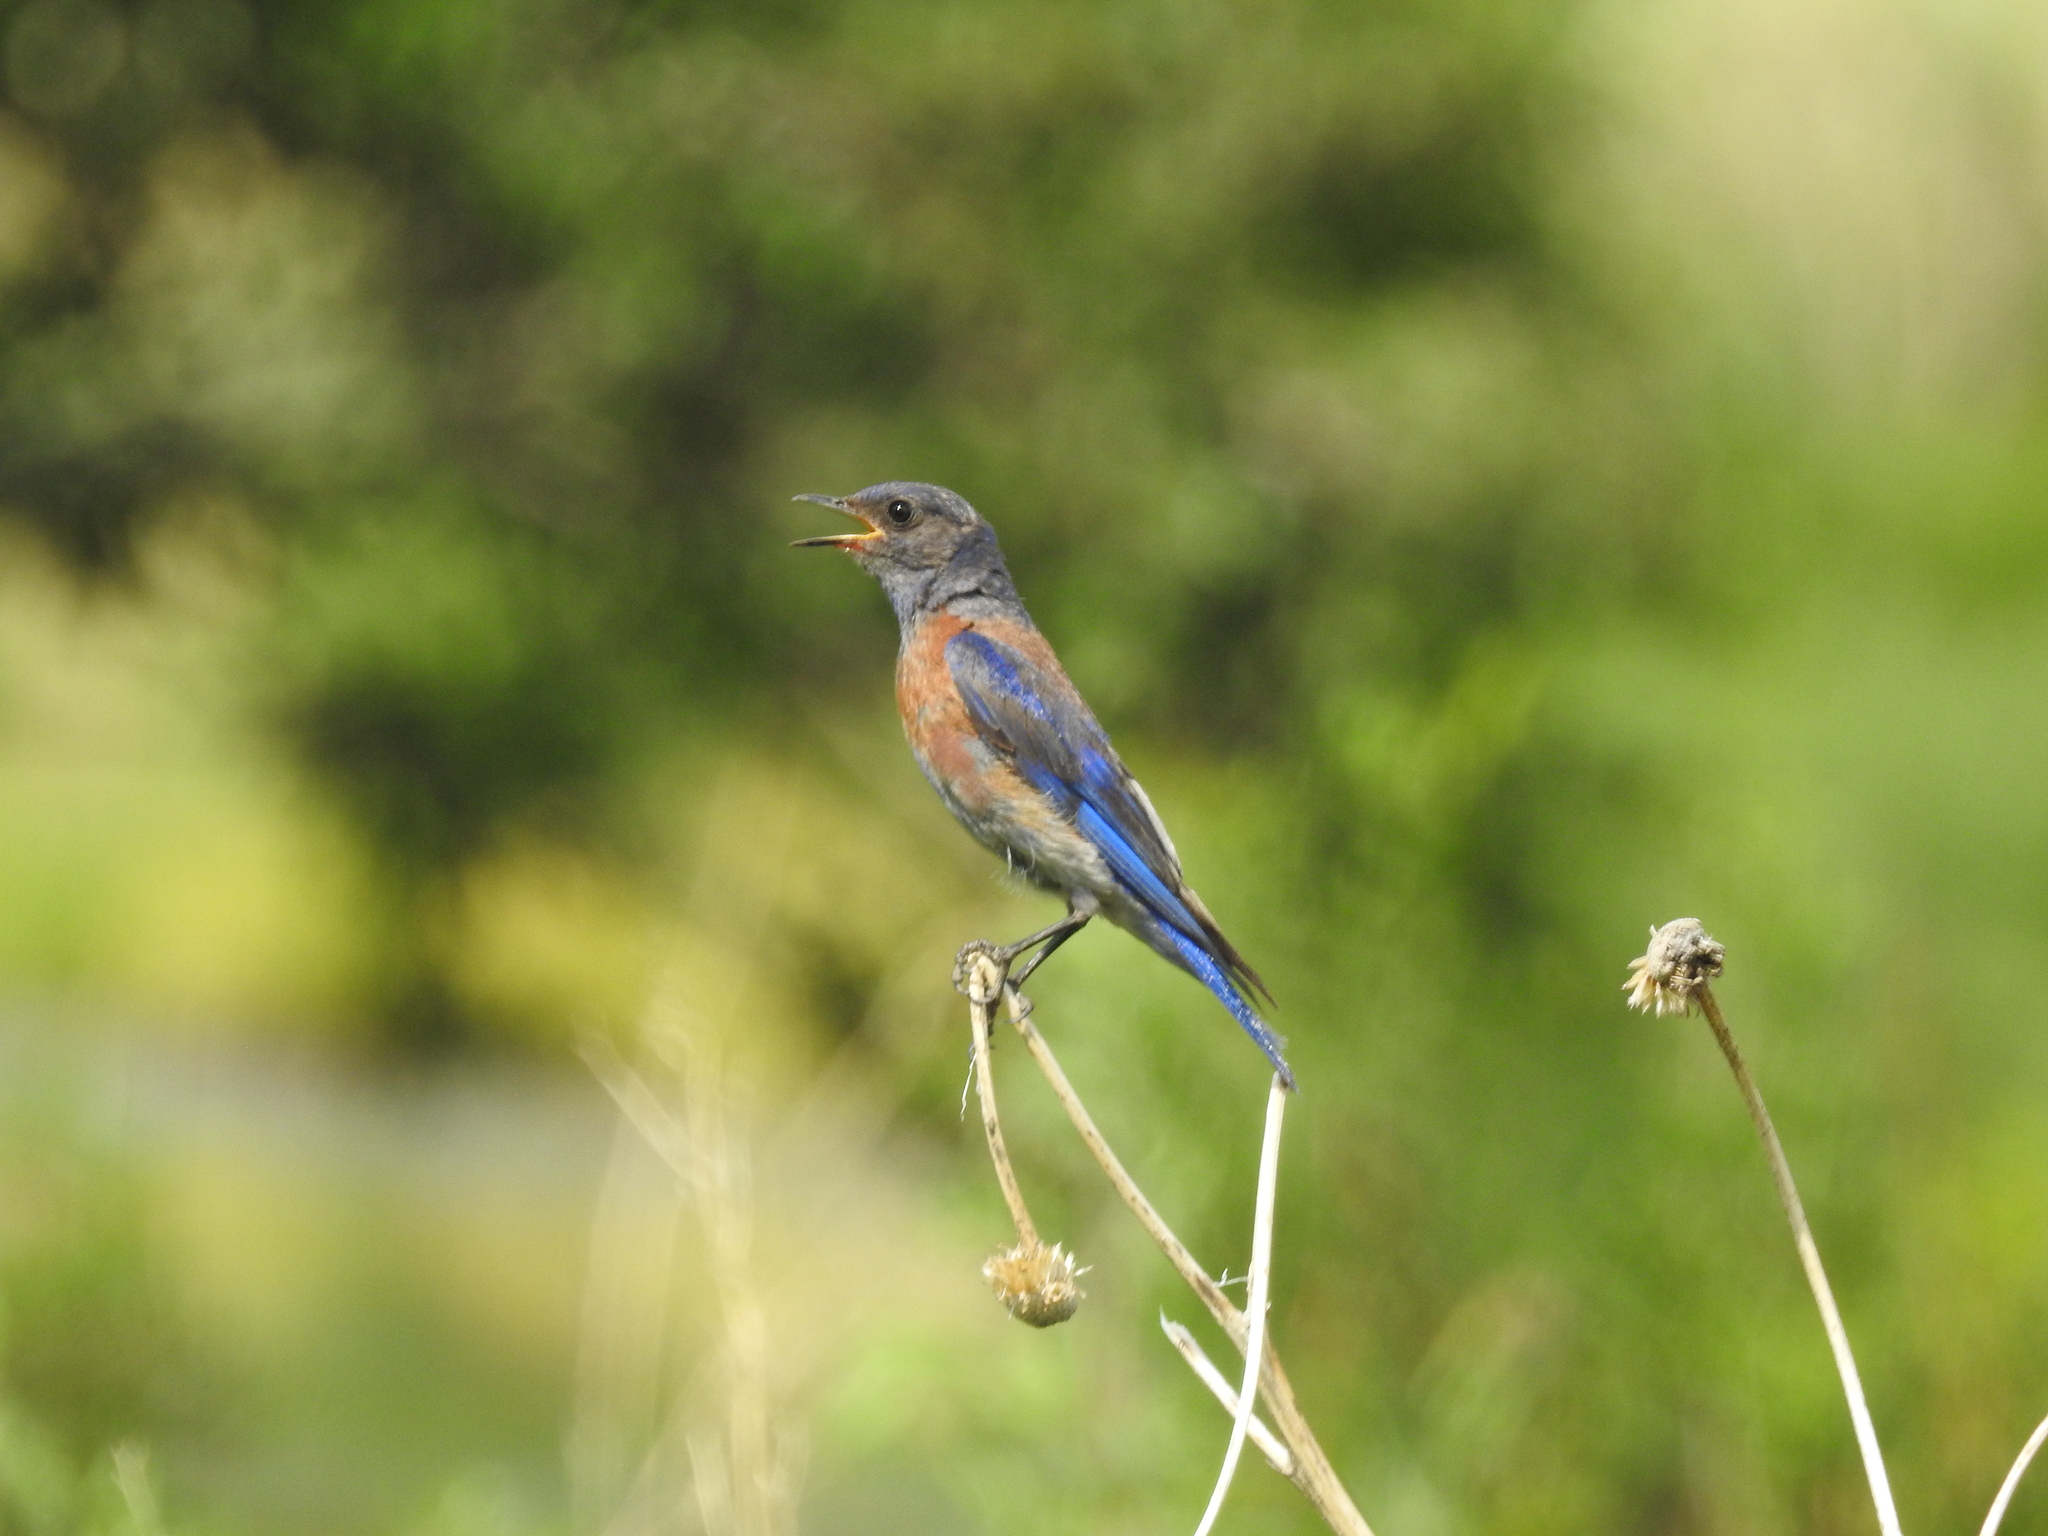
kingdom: Animalia
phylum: Chordata
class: Aves
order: Passeriformes
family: Turdidae
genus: Sialia
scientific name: Sialia mexicana
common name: Western bluebird
